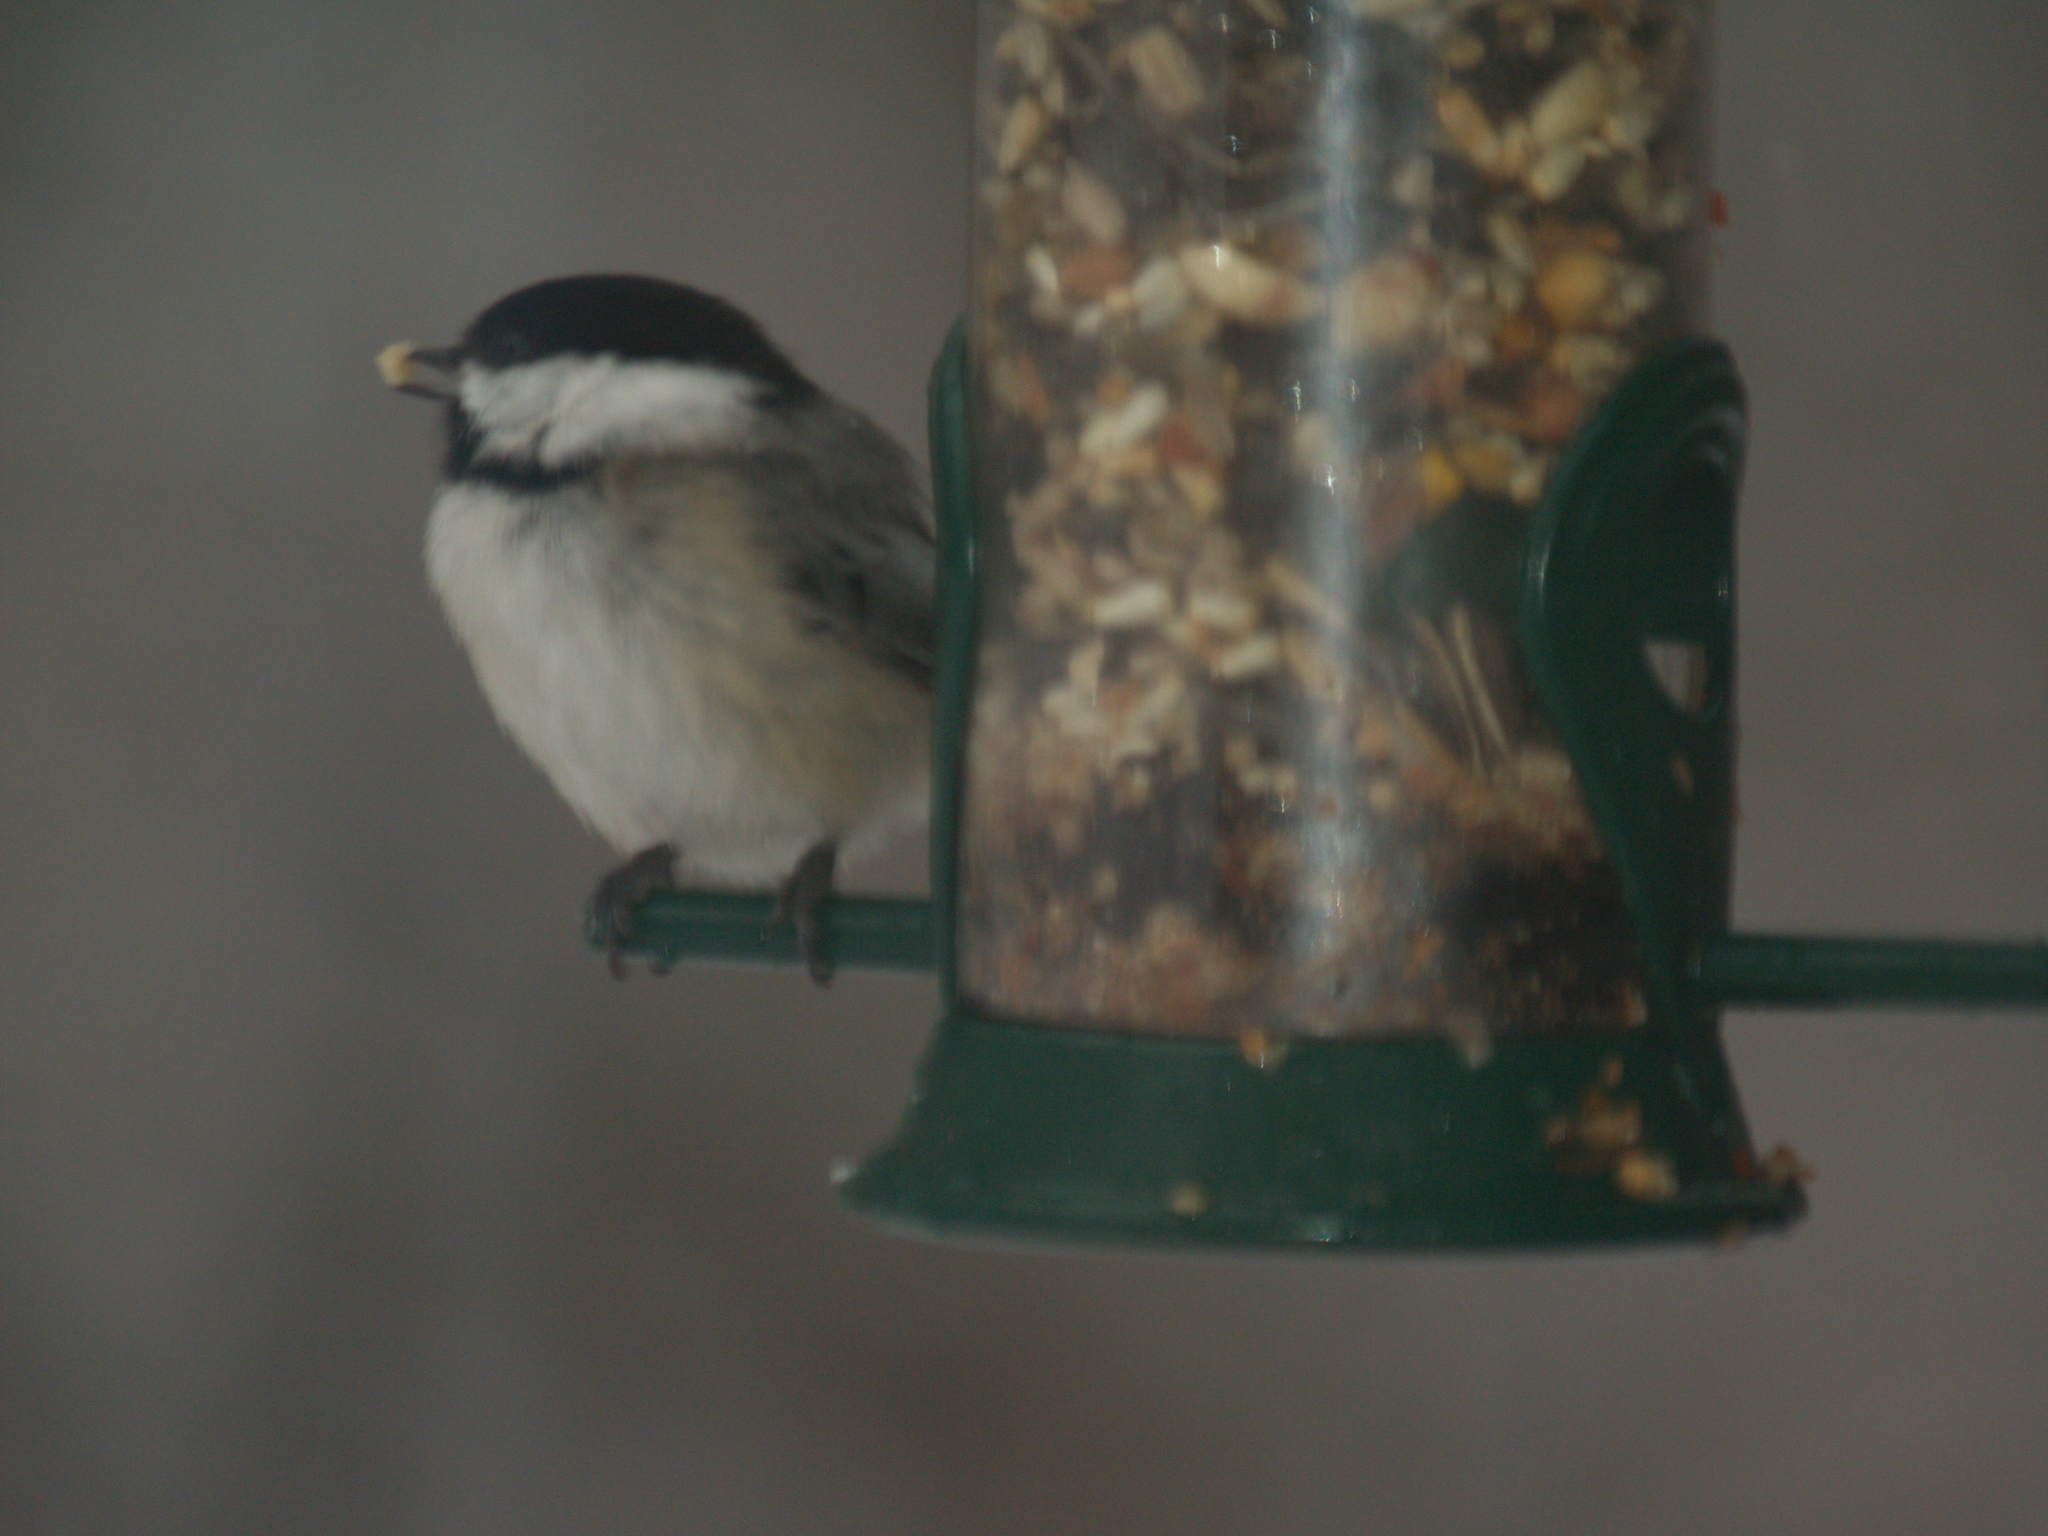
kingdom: Animalia
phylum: Chordata
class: Aves
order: Passeriformes
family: Paridae
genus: Poecile
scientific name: Poecile atricapillus
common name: Black-capped chickadee
